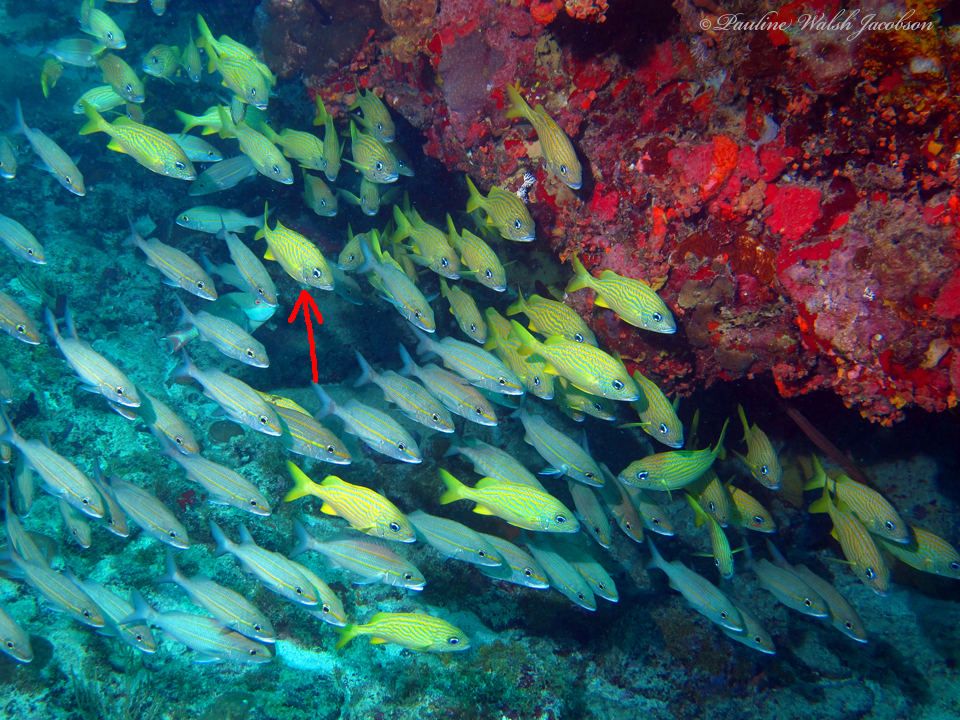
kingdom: Animalia
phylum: Chordata
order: Perciformes
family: Haemulidae
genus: Haemulon
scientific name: Haemulon flavolineatum
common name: French grunt
